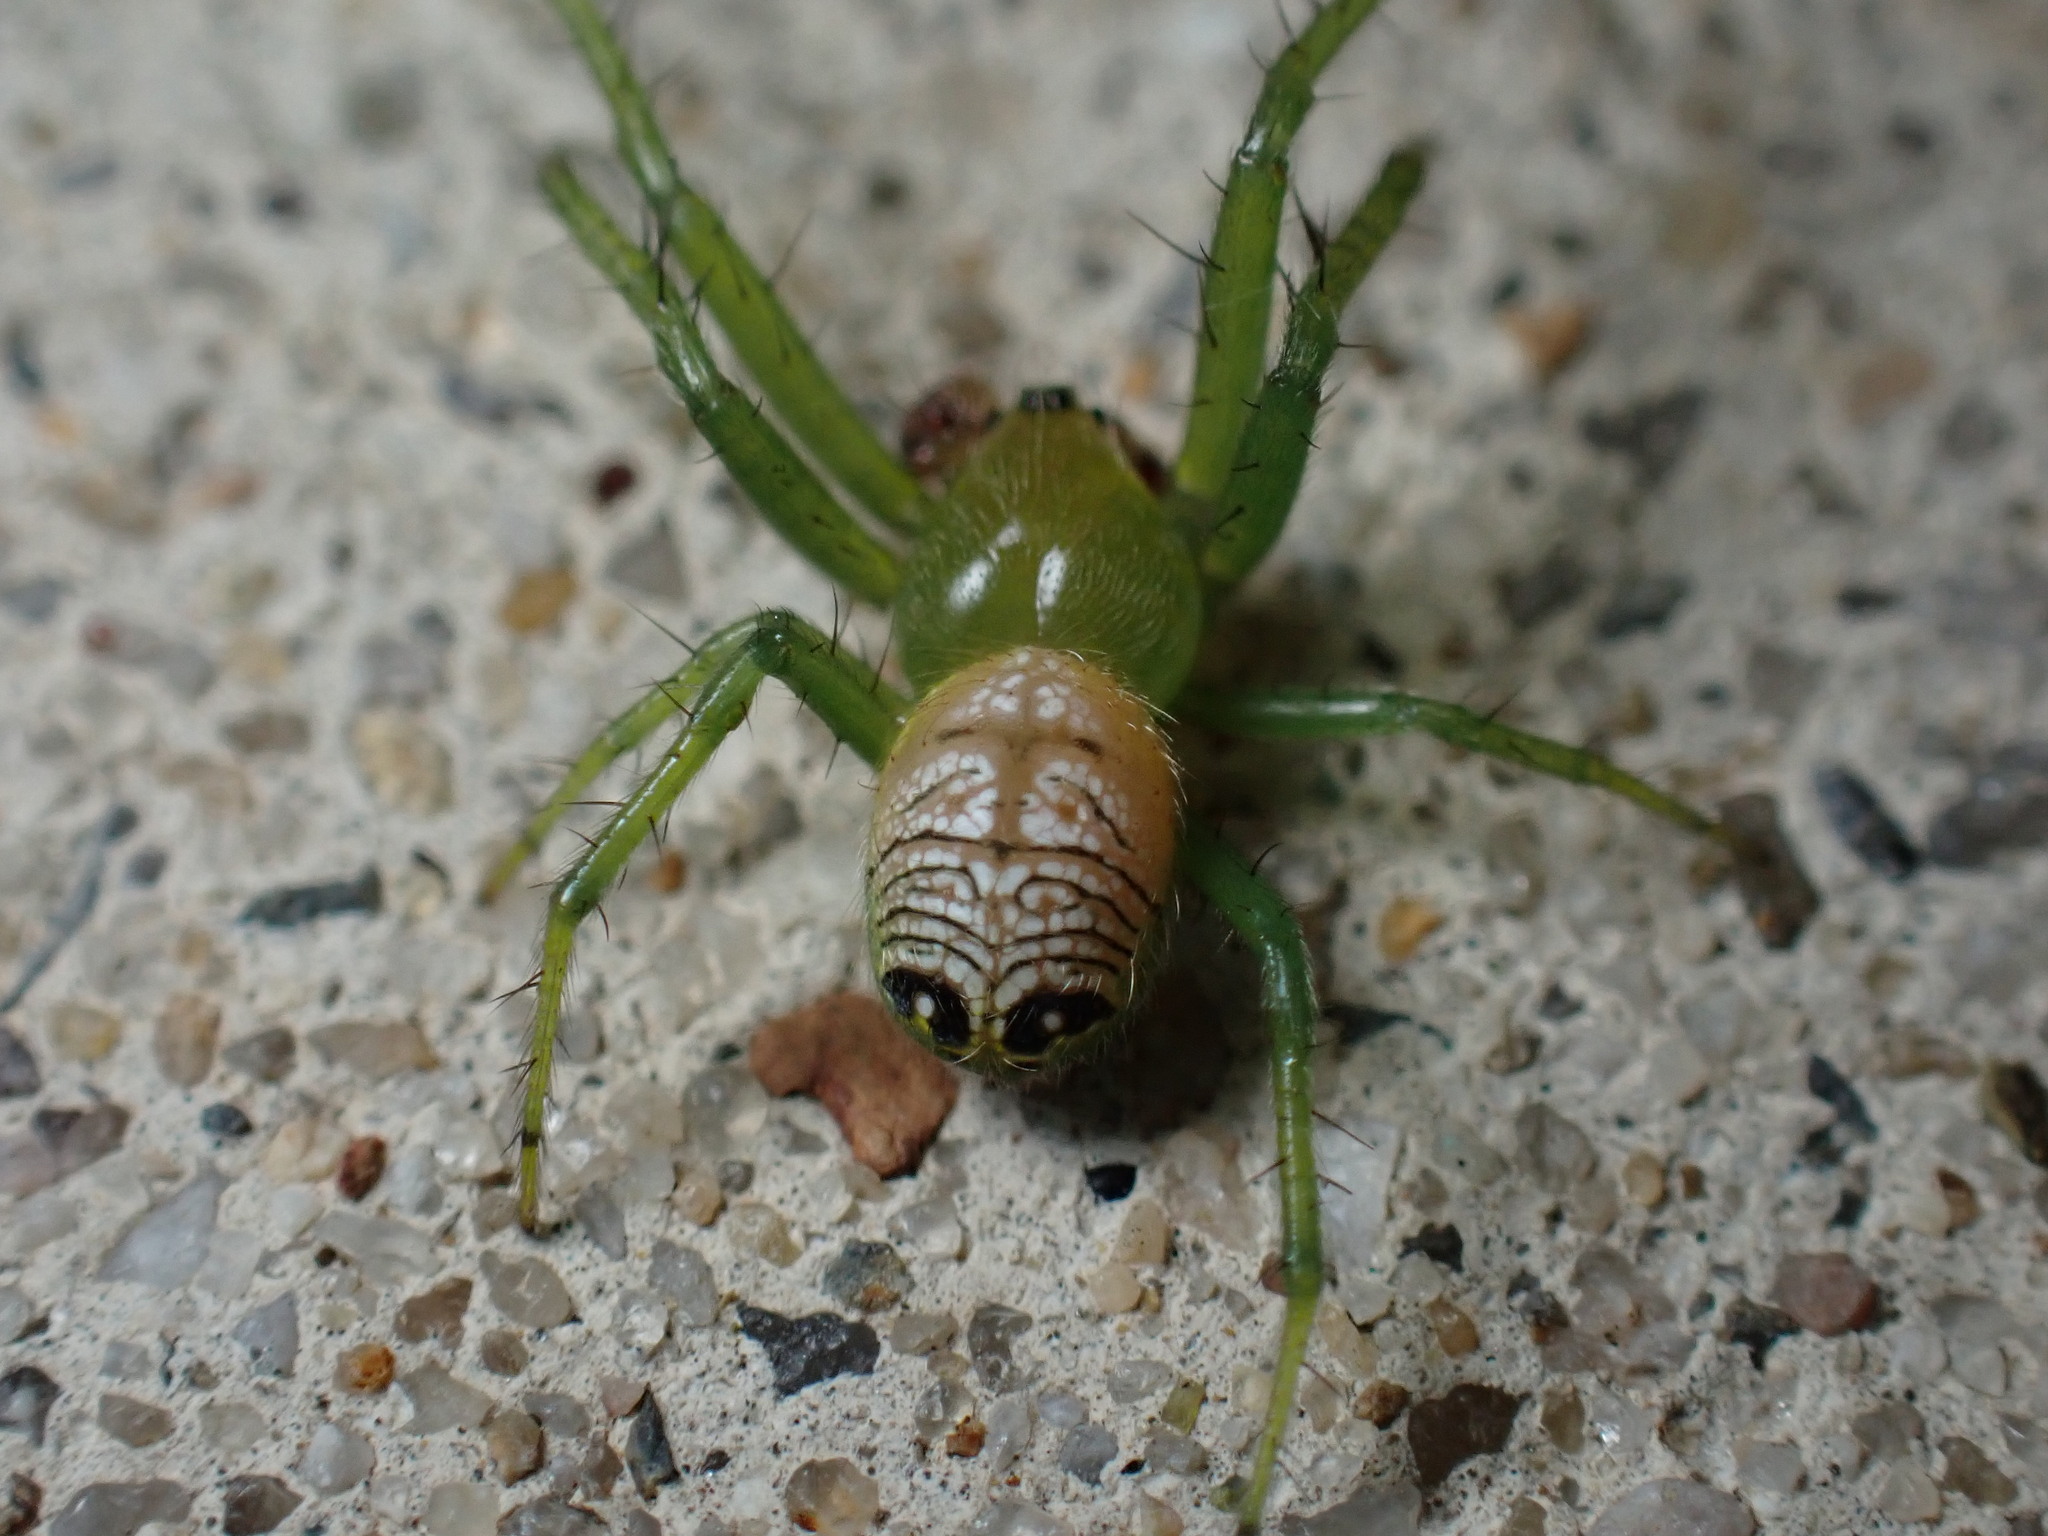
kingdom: Animalia
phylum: Arthropoda
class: Arachnida
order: Araneae
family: Araneidae
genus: Bijoaraneus
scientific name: Bijoaraneus praesignis
